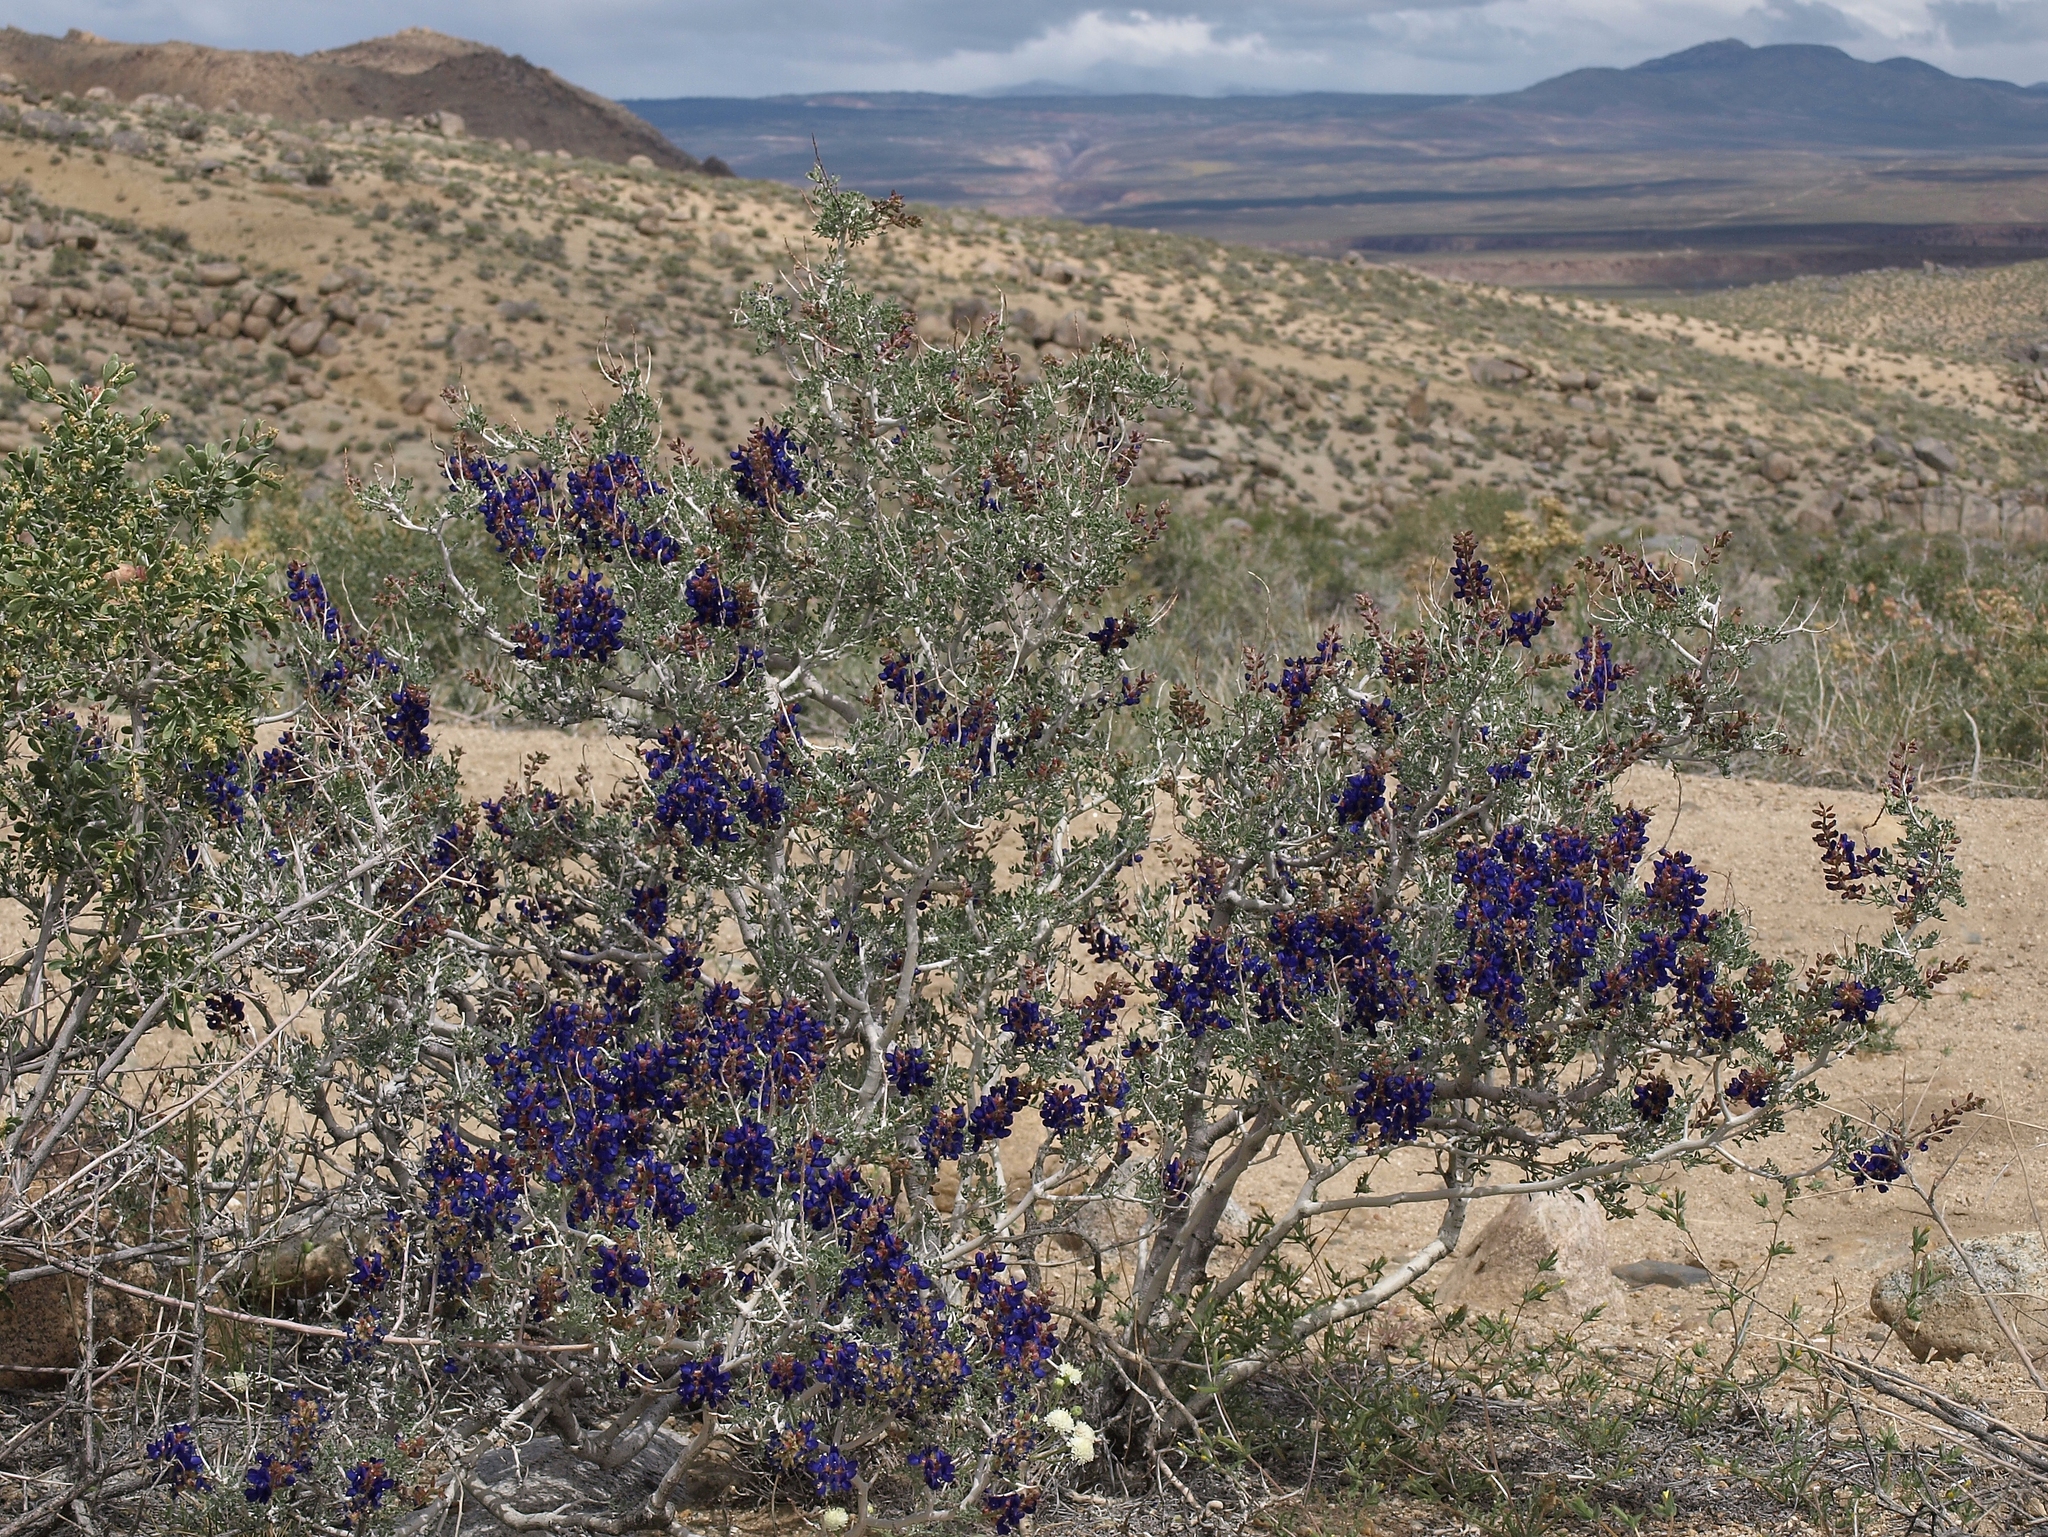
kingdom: Plantae
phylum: Tracheophyta
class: Magnoliopsida
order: Fabales
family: Fabaceae
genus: Psorothamnus
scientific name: Psorothamnus arborescens
